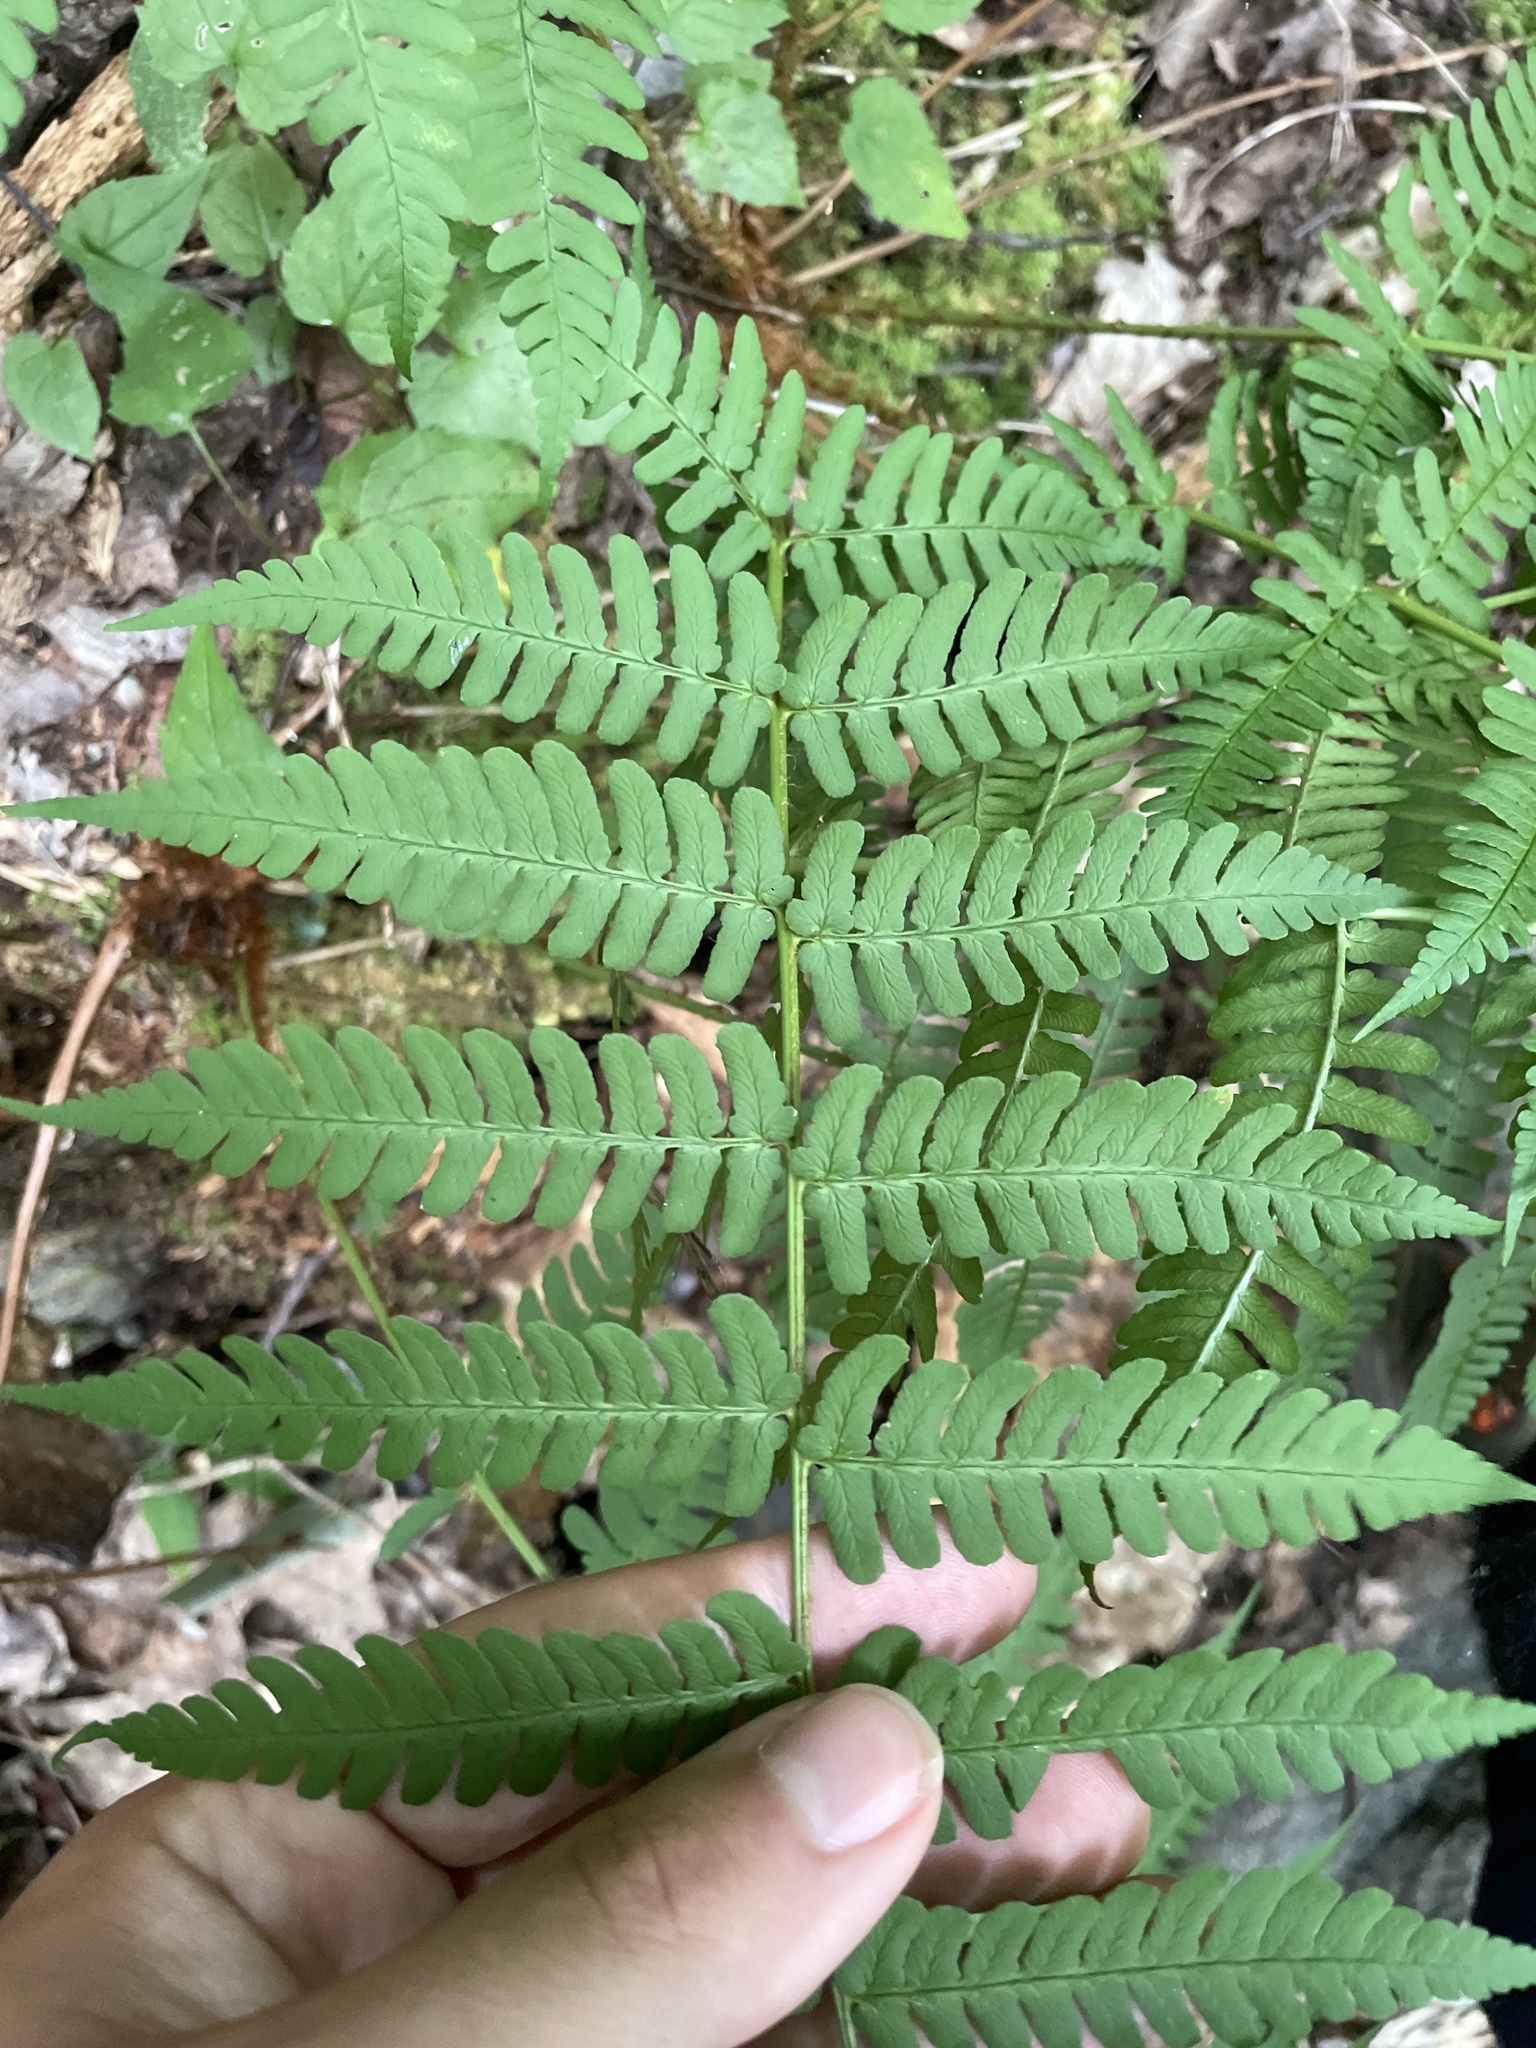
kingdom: Plantae
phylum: Tracheophyta
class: Polypodiopsida
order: Polypodiales
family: Dryopteridaceae
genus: Dryopteris
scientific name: Dryopteris marginalis
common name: Marginal wood fern
